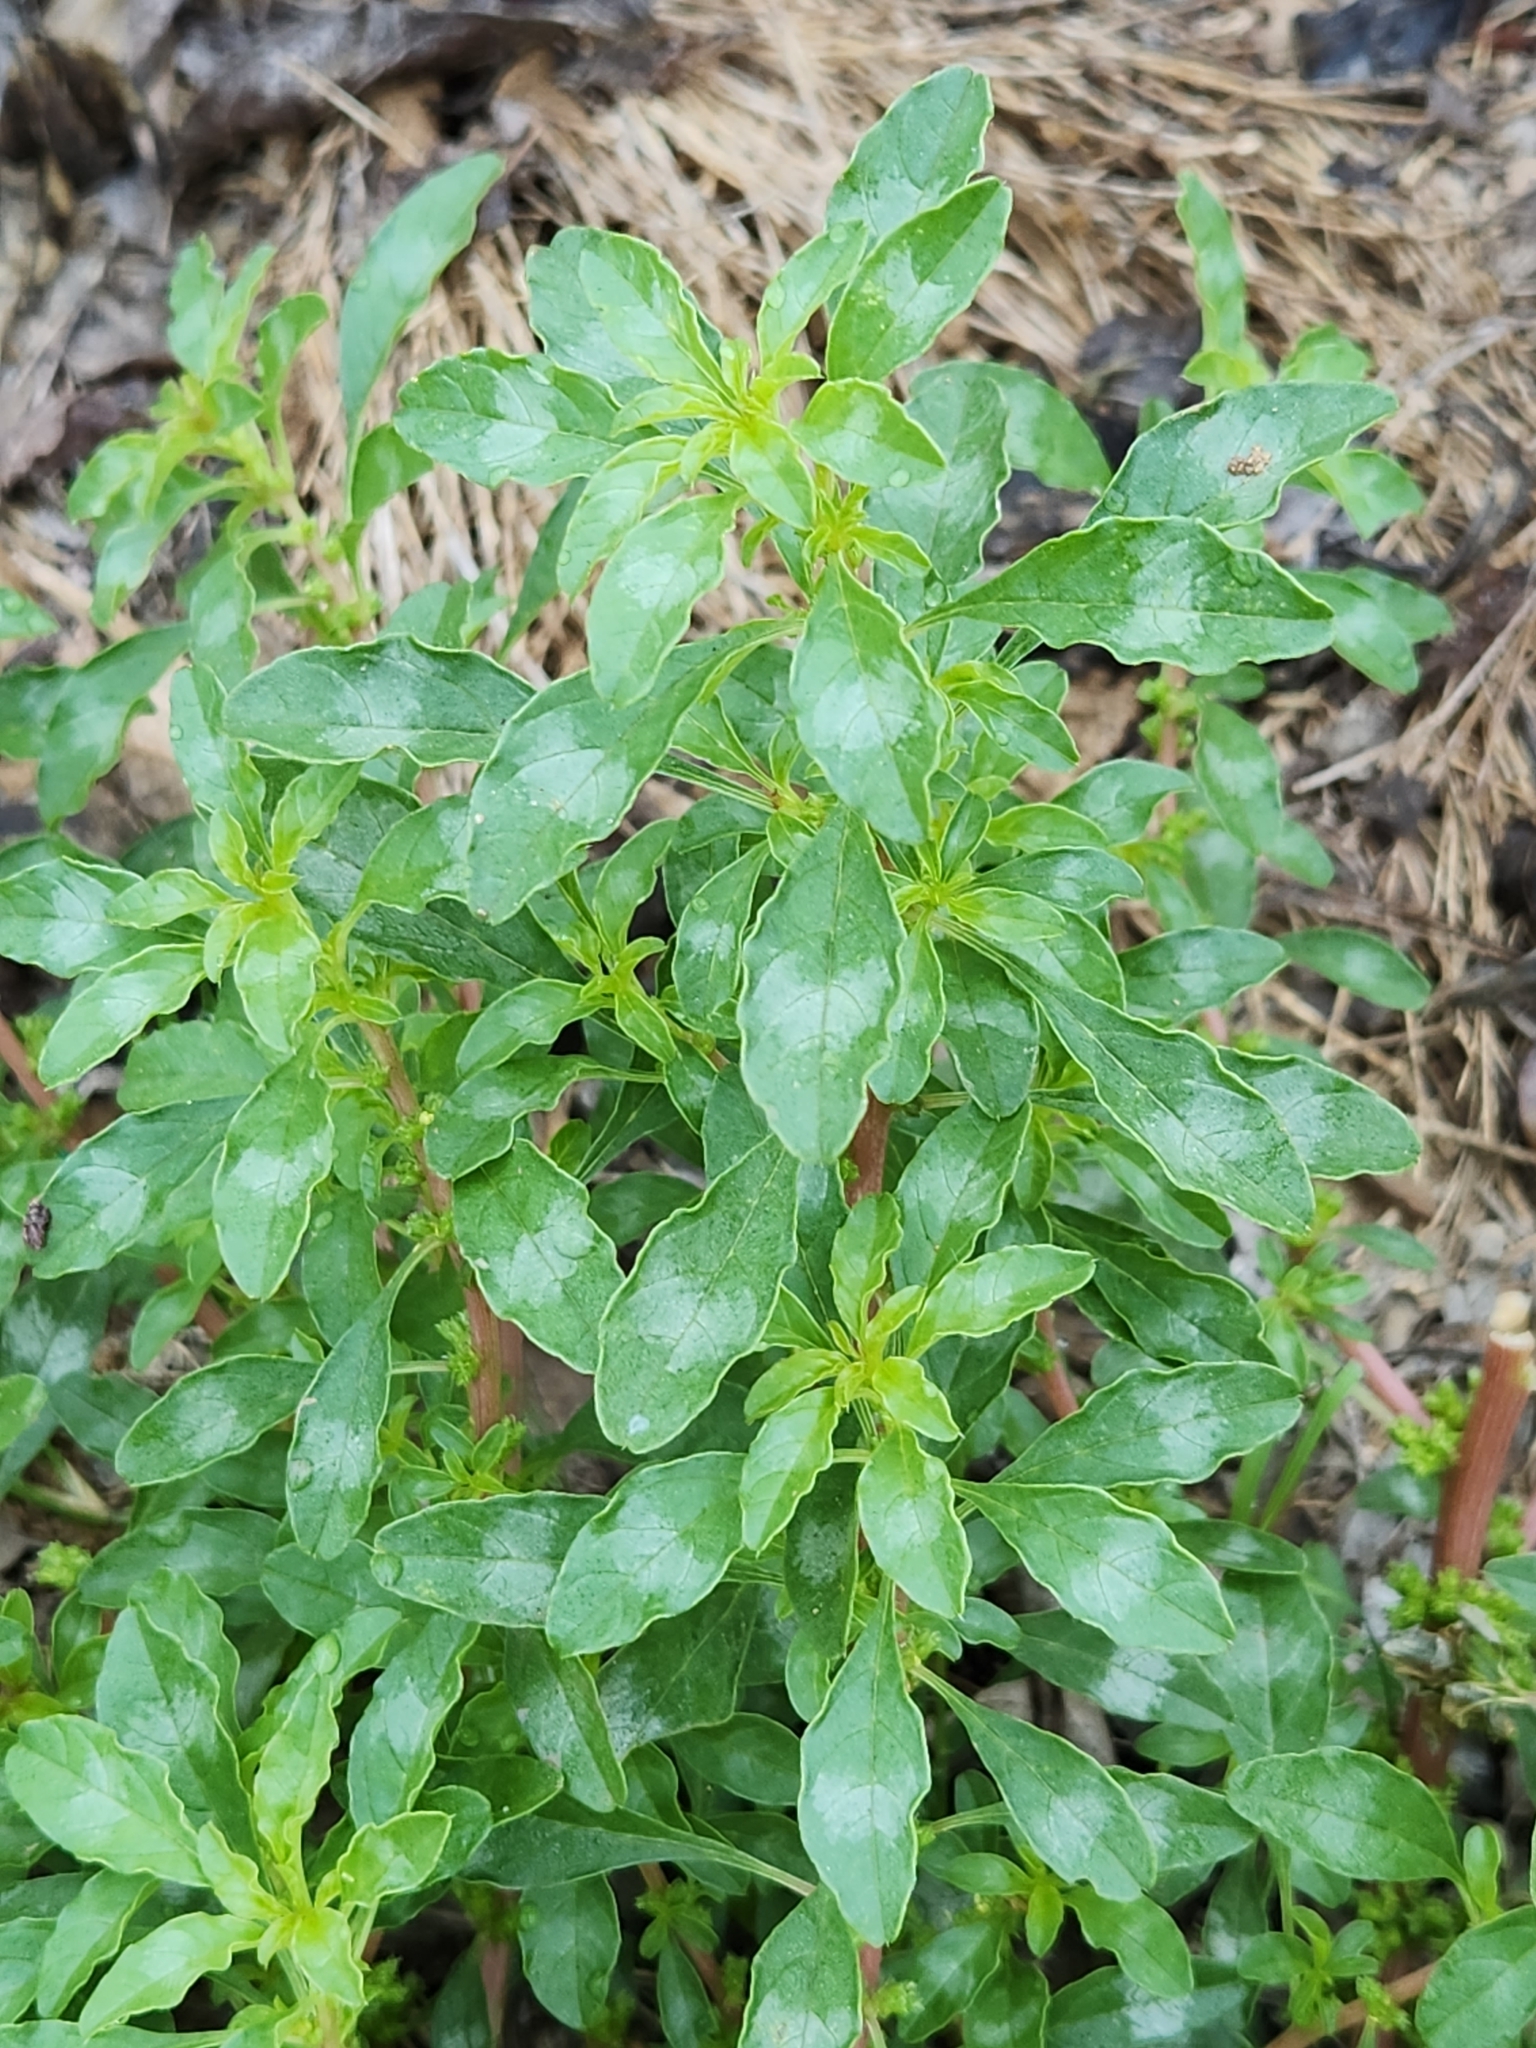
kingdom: Plantae
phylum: Tracheophyta
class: Magnoliopsida
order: Caryophyllales
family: Amaranthaceae
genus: Amaranthus
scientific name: Amaranthus polygonoides
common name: Tropical amaranth
